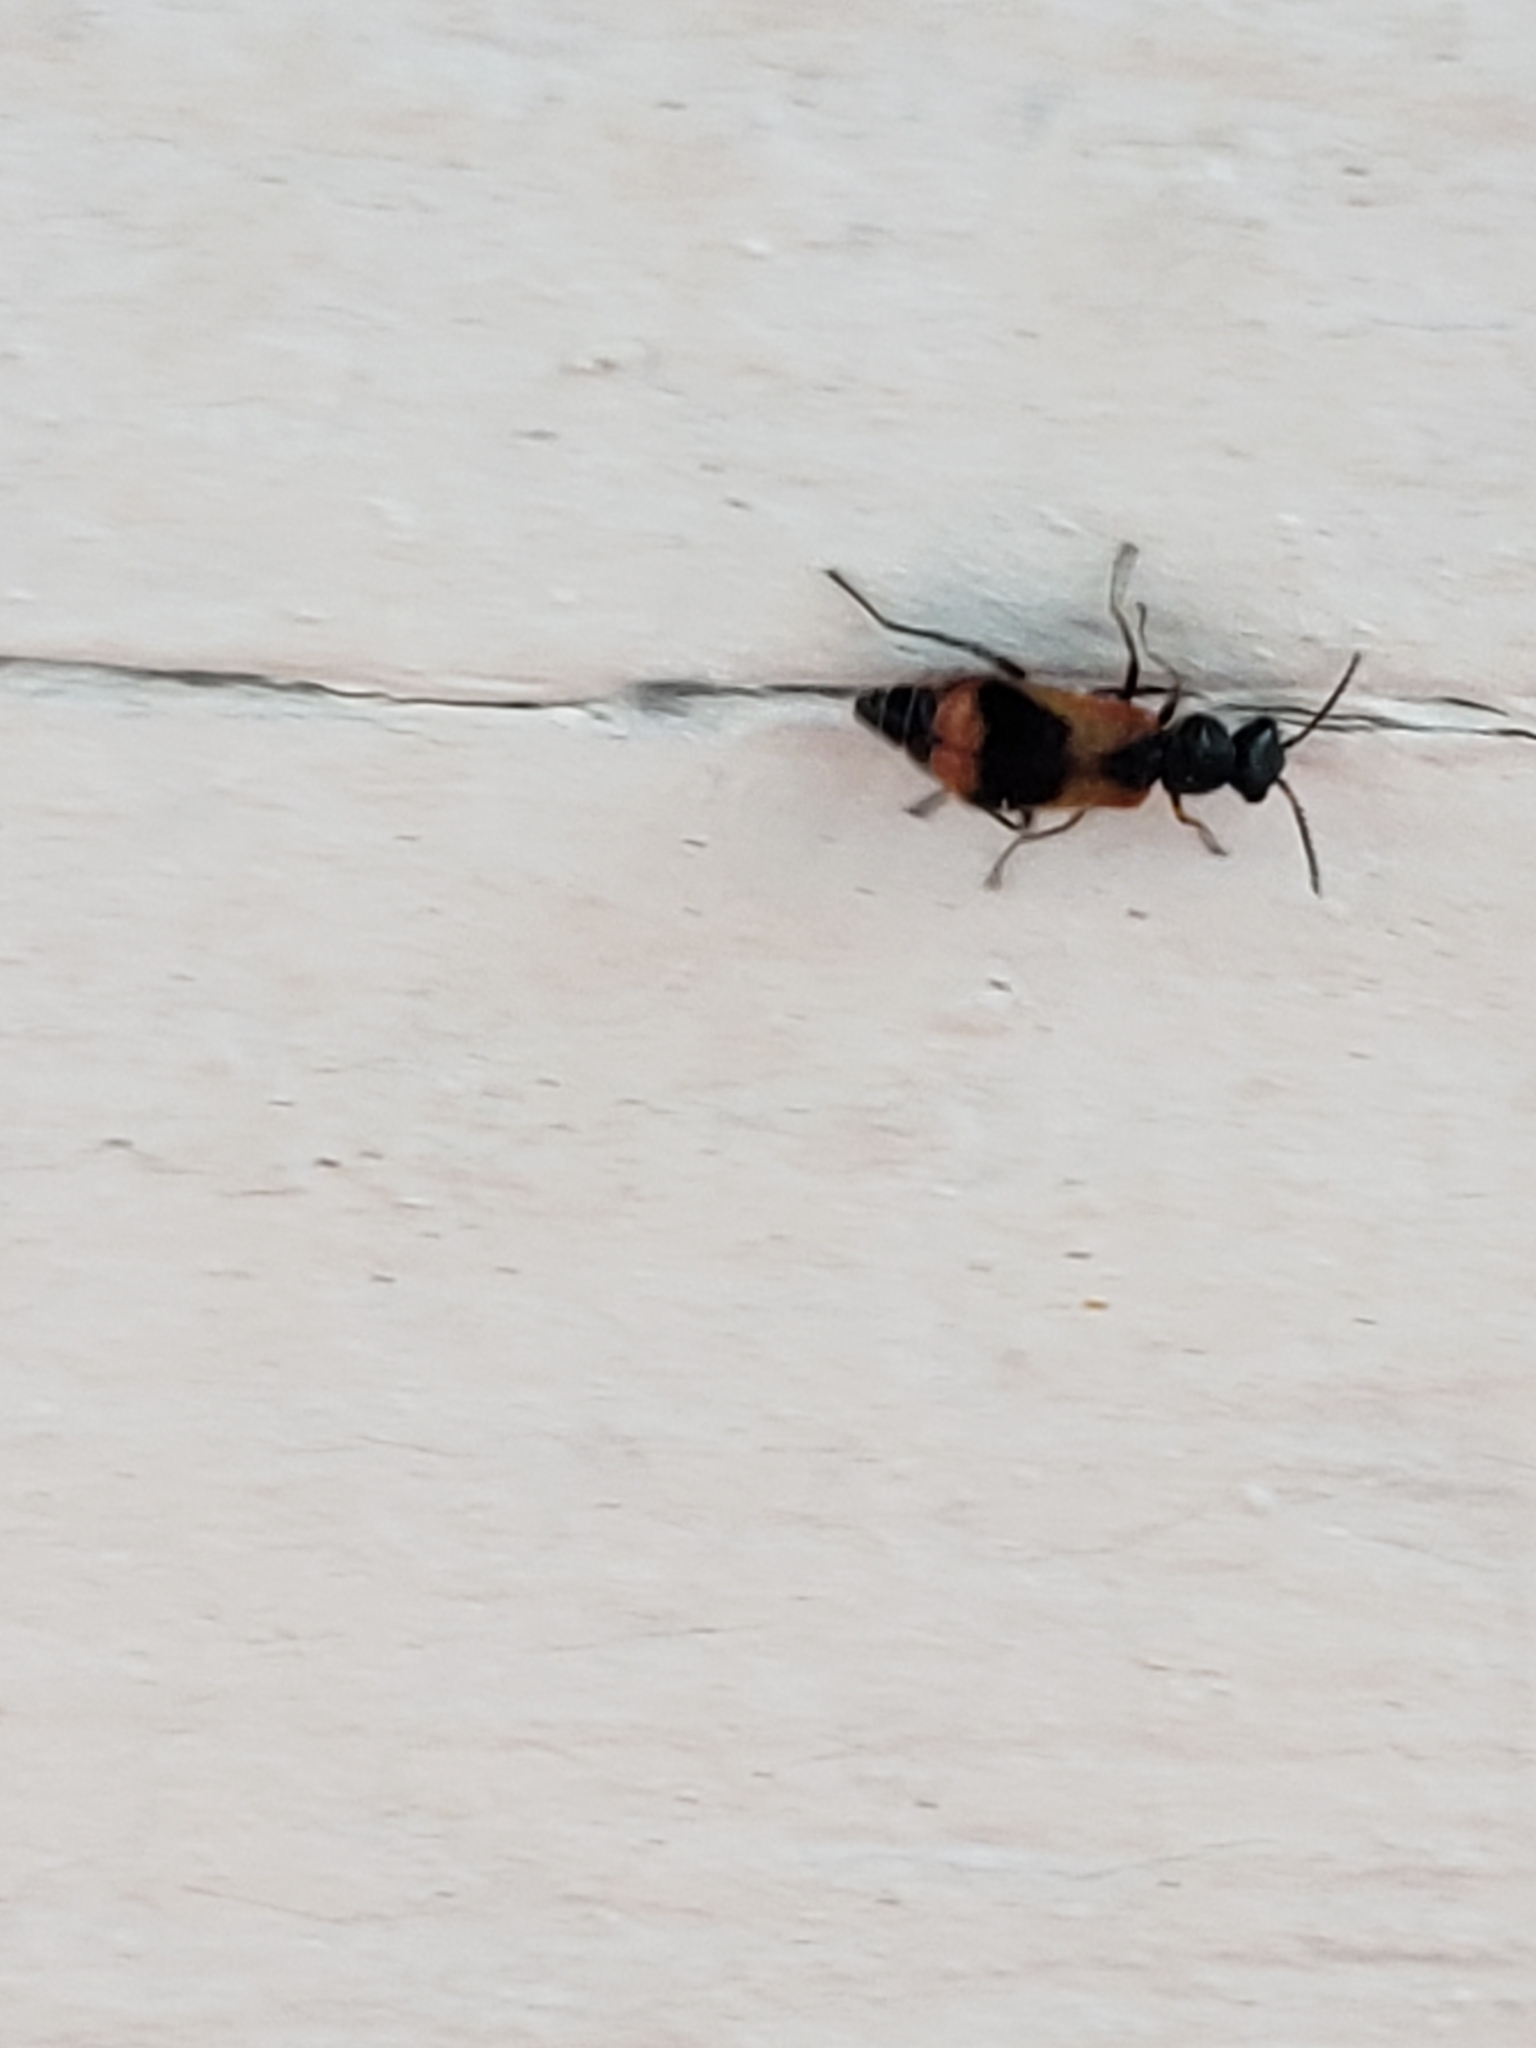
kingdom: Animalia
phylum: Arthropoda
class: Insecta
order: Coleoptera
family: Melyridae
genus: Anthocomus
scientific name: Anthocomus equestris
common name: Black-banded soft-winged flower beetle
